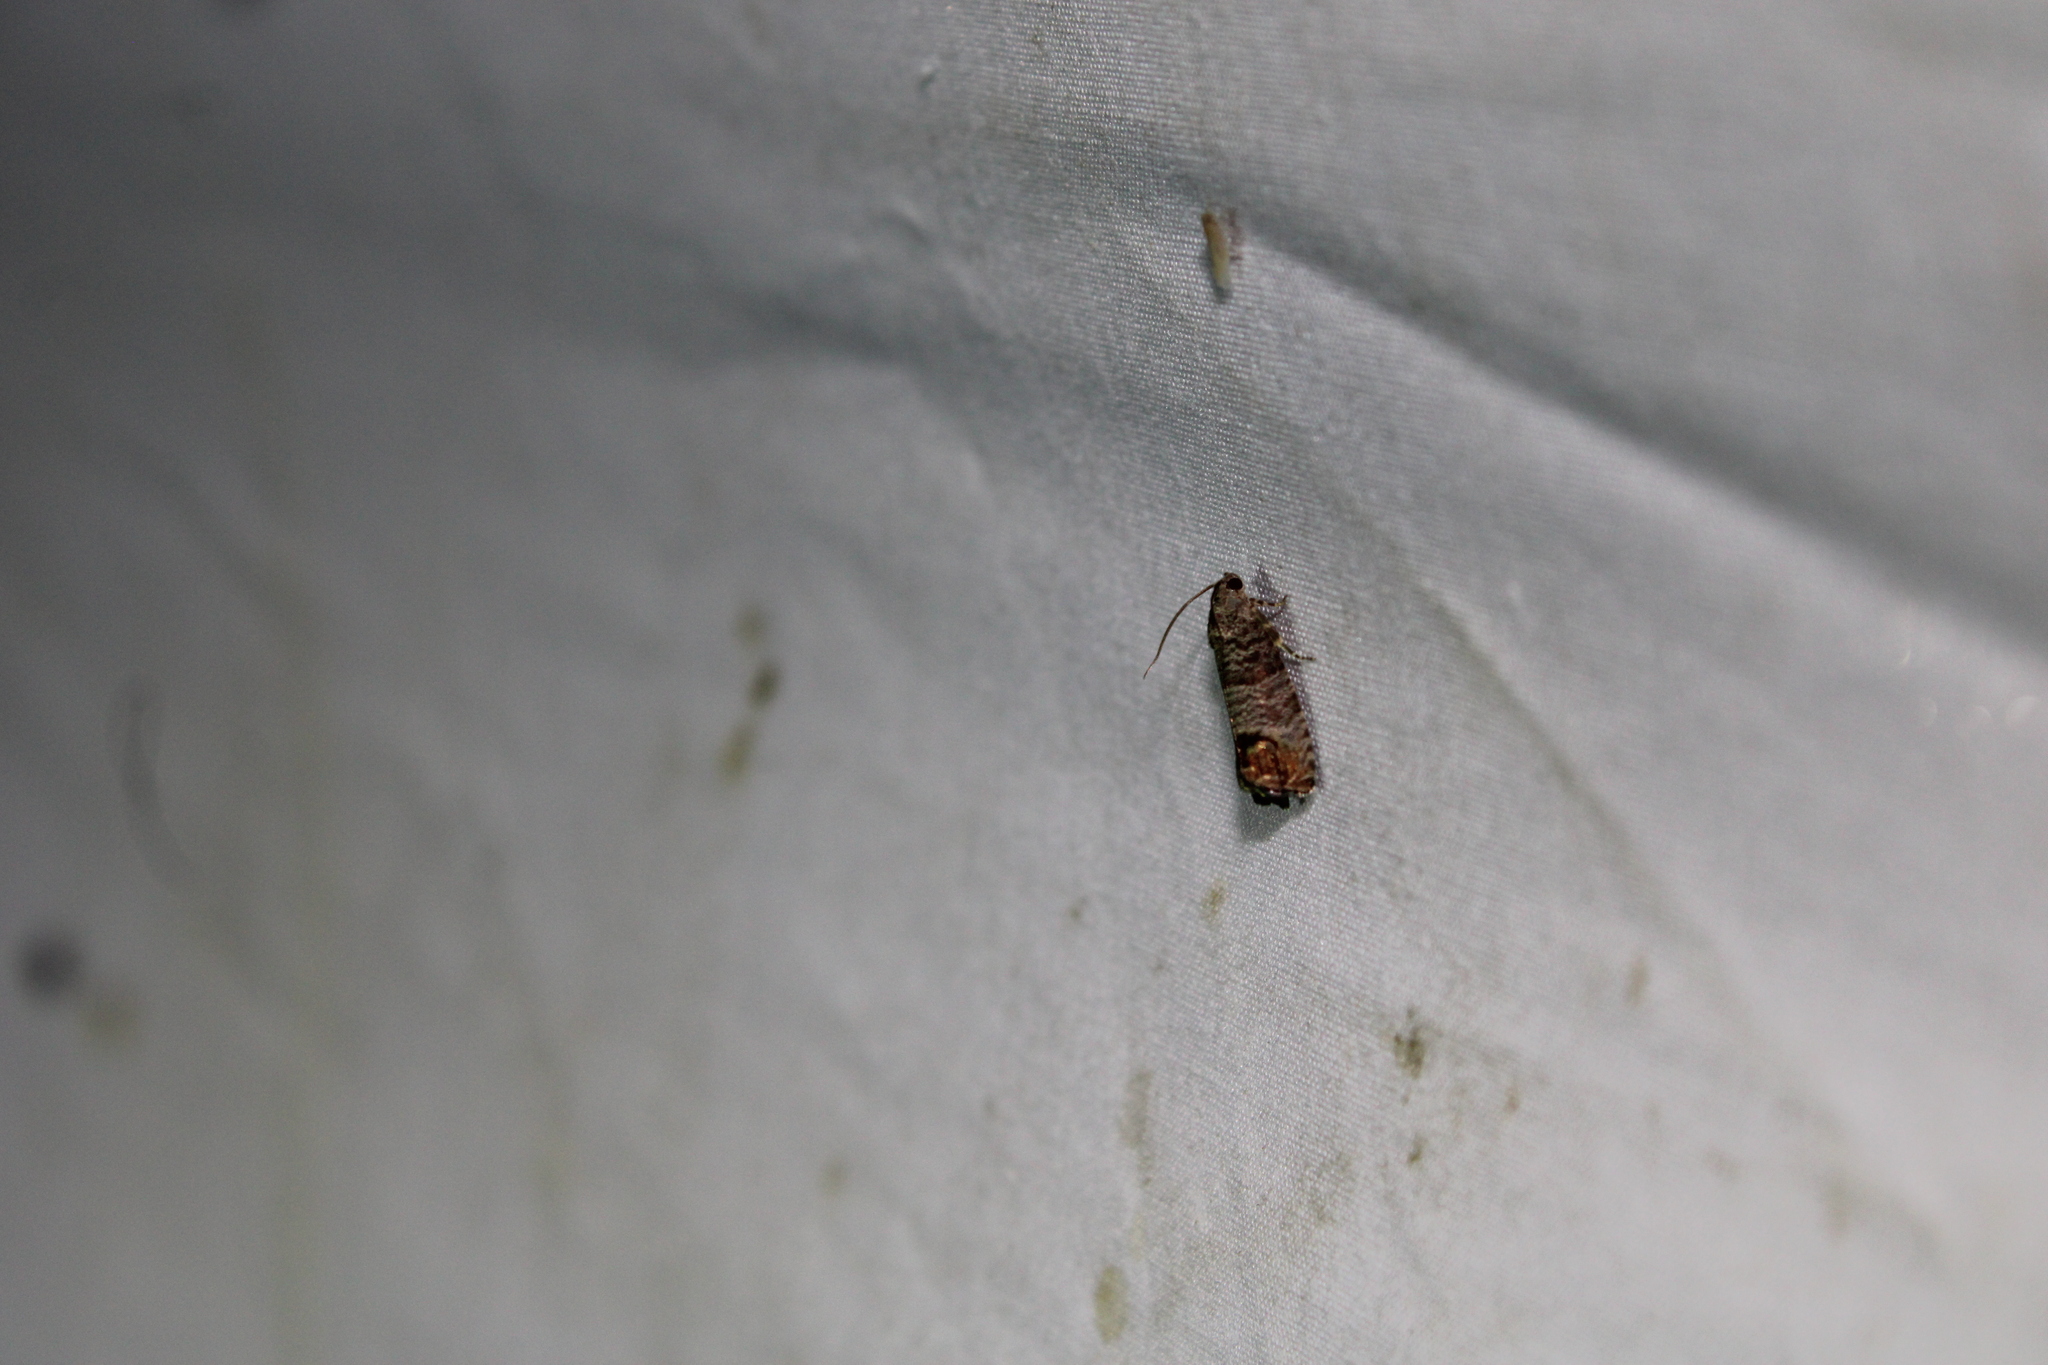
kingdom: Animalia
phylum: Arthropoda
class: Insecta
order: Lepidoptera
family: Tortricidae
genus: Cydia
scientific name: Cydia pomonella
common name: Codling moth
